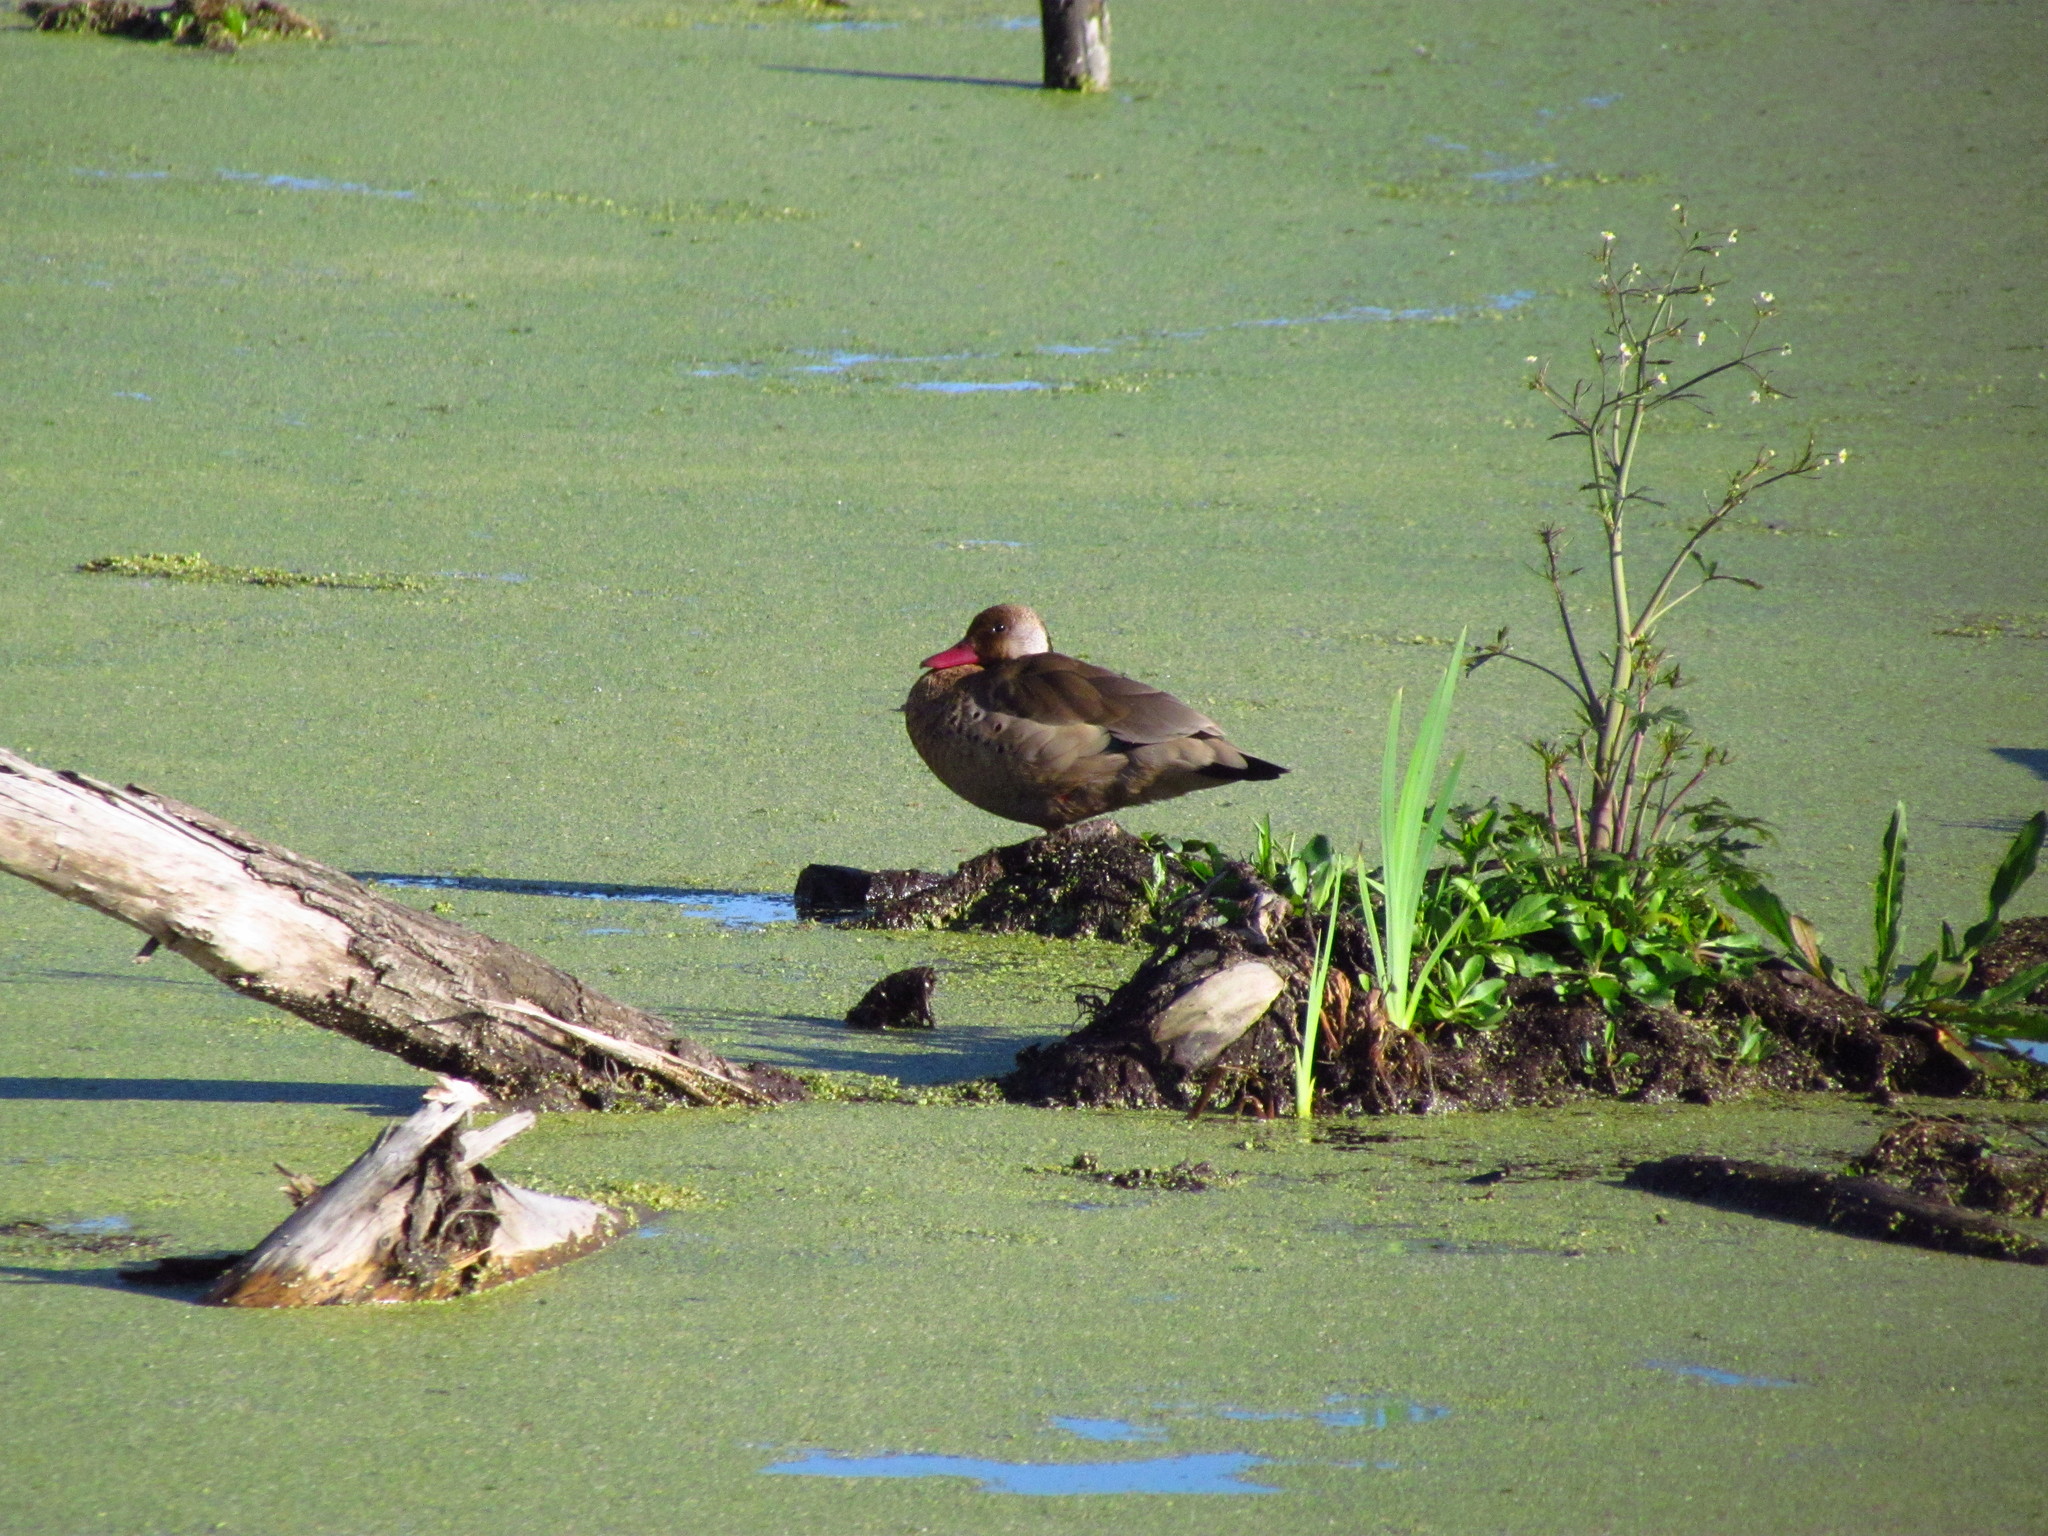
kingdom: Animalia
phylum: Chordata
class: Aves
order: Anseriformes
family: Anatidae
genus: Amazonetta
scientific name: Amazonetta brasiliensis
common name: Brazilian teal
